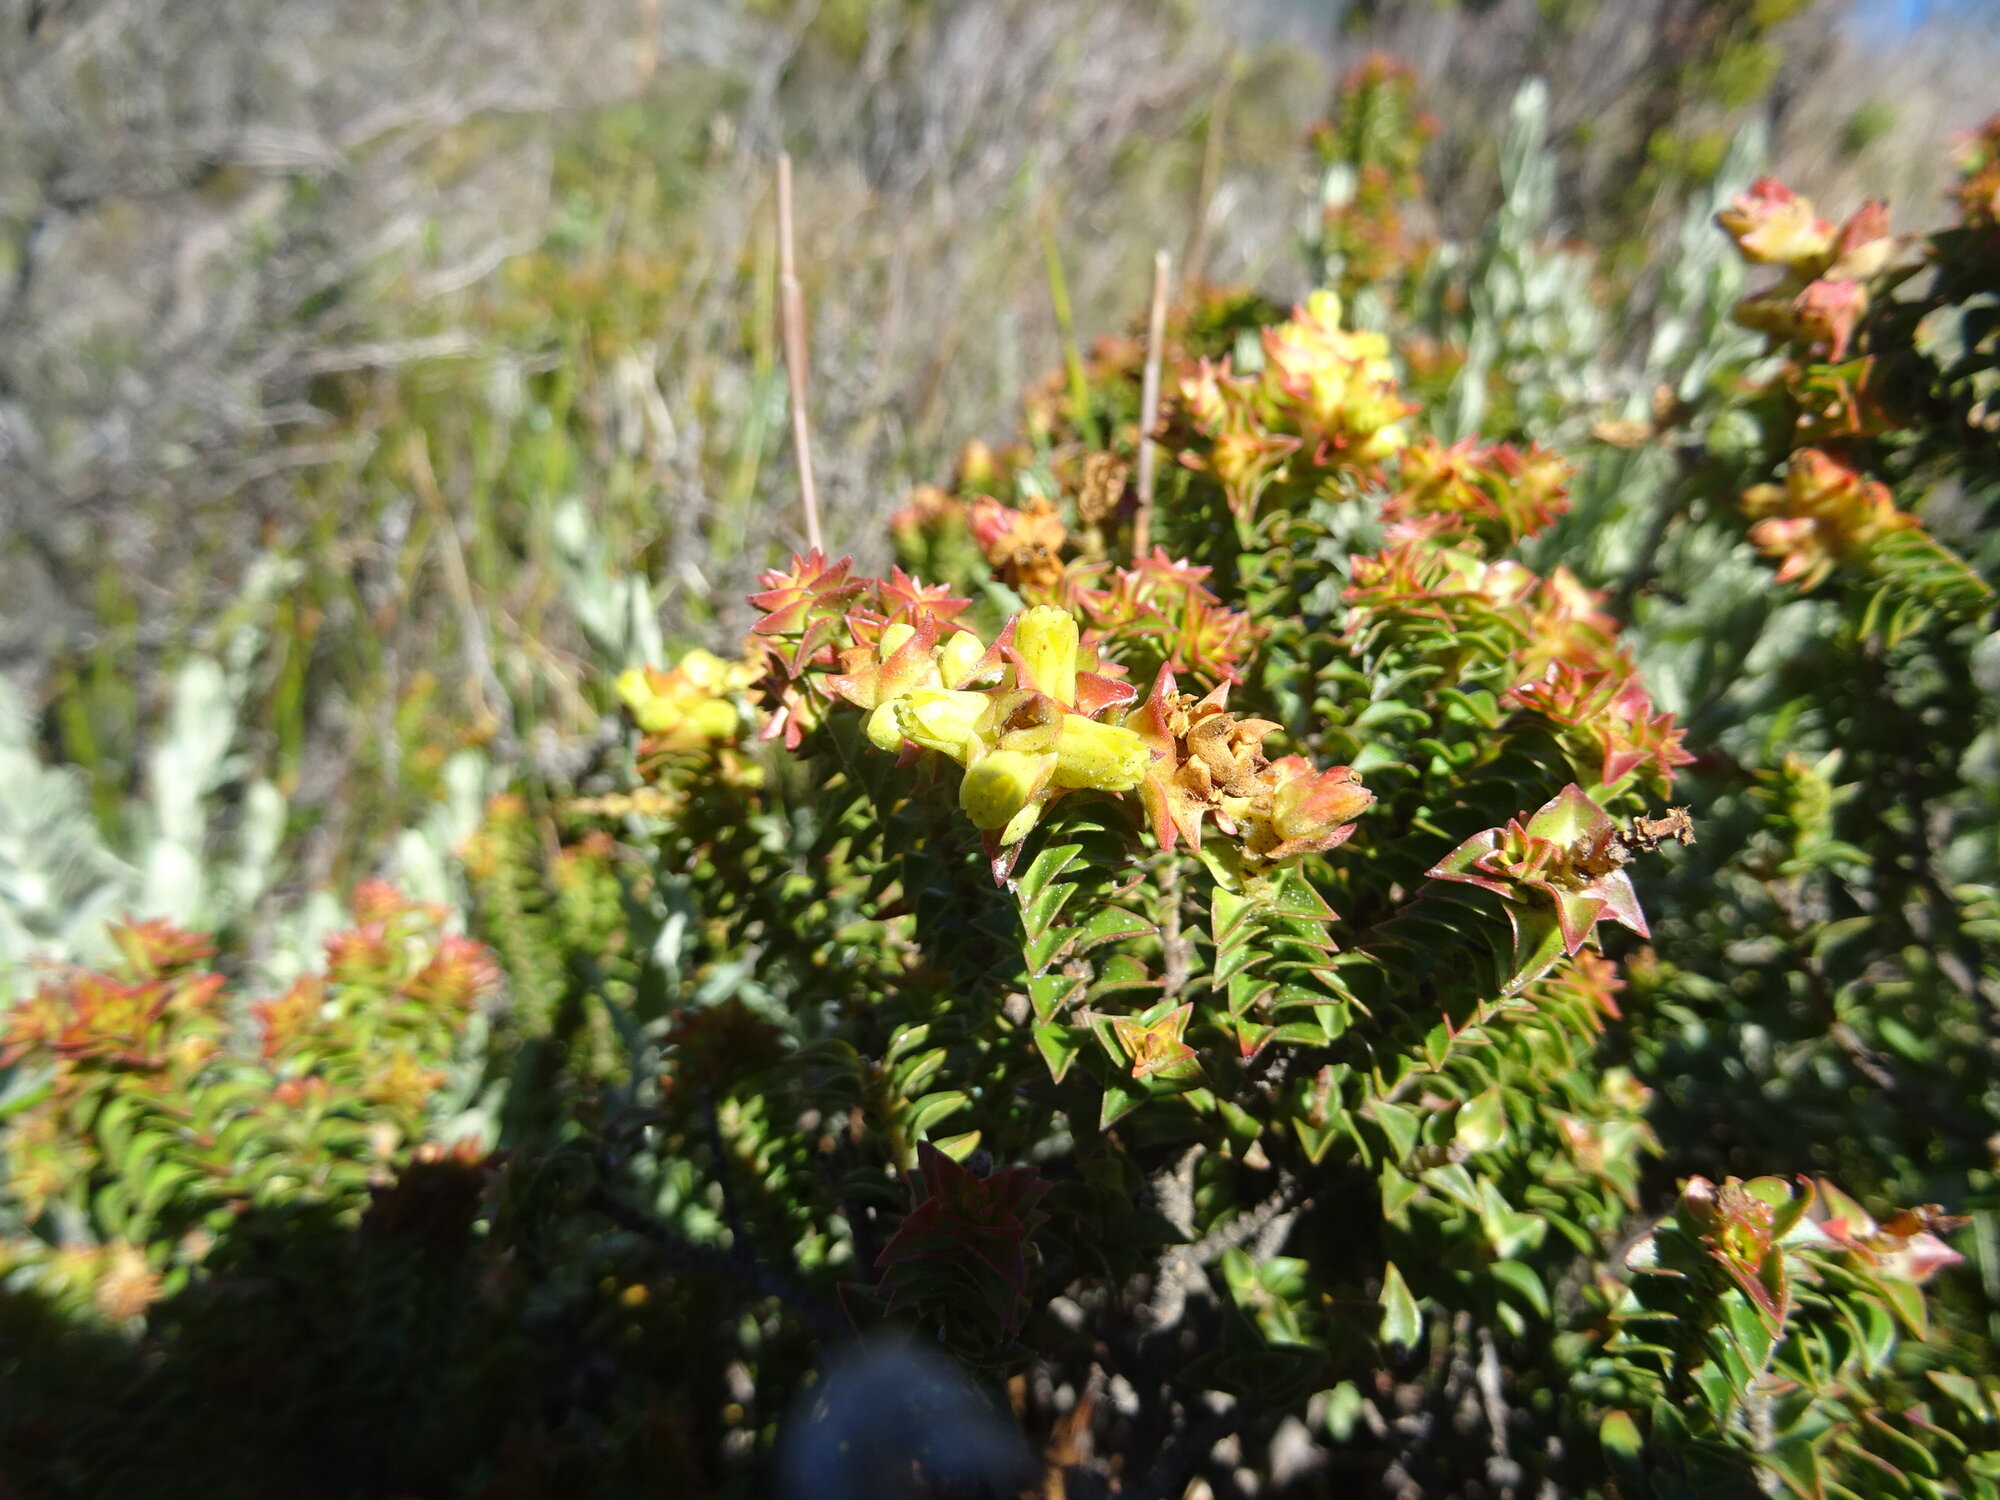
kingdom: Plantae
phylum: Tracheophyta
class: Magnoliopsida
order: Myrtales
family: Penaeaceae
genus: Penaea
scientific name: Penaea mucronata
